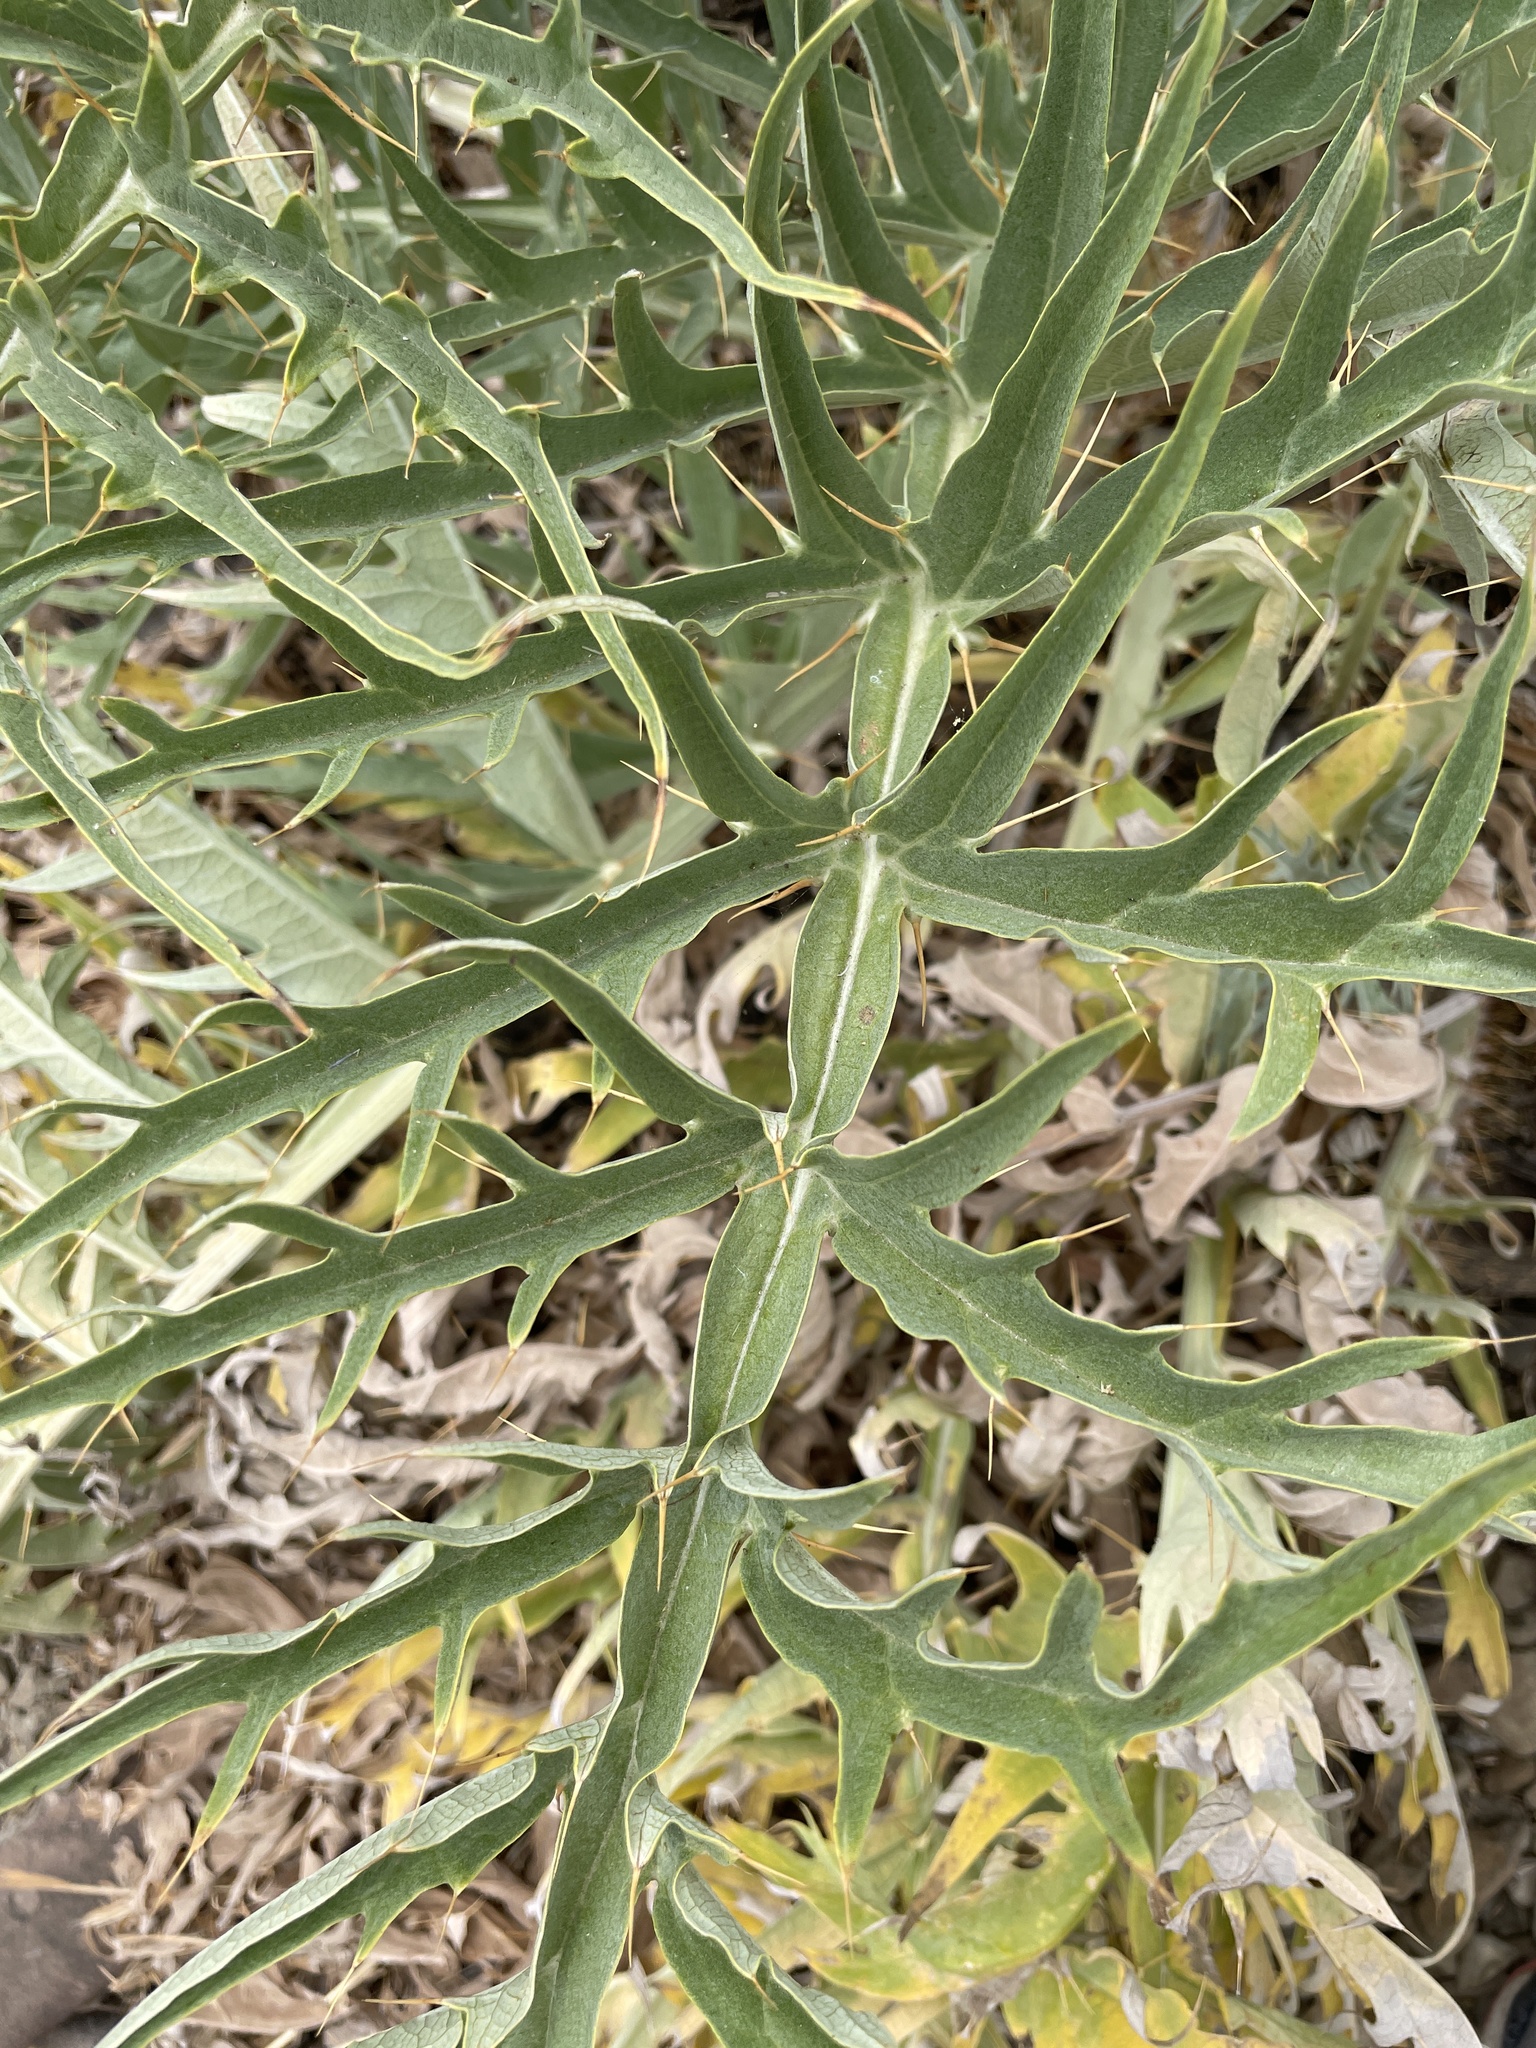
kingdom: Plantae
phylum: Tracheophyta
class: Magnoliopsida
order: Asterales
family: Asteraceae
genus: Cynara
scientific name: Cynara cardunculus
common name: Globe artichoke
